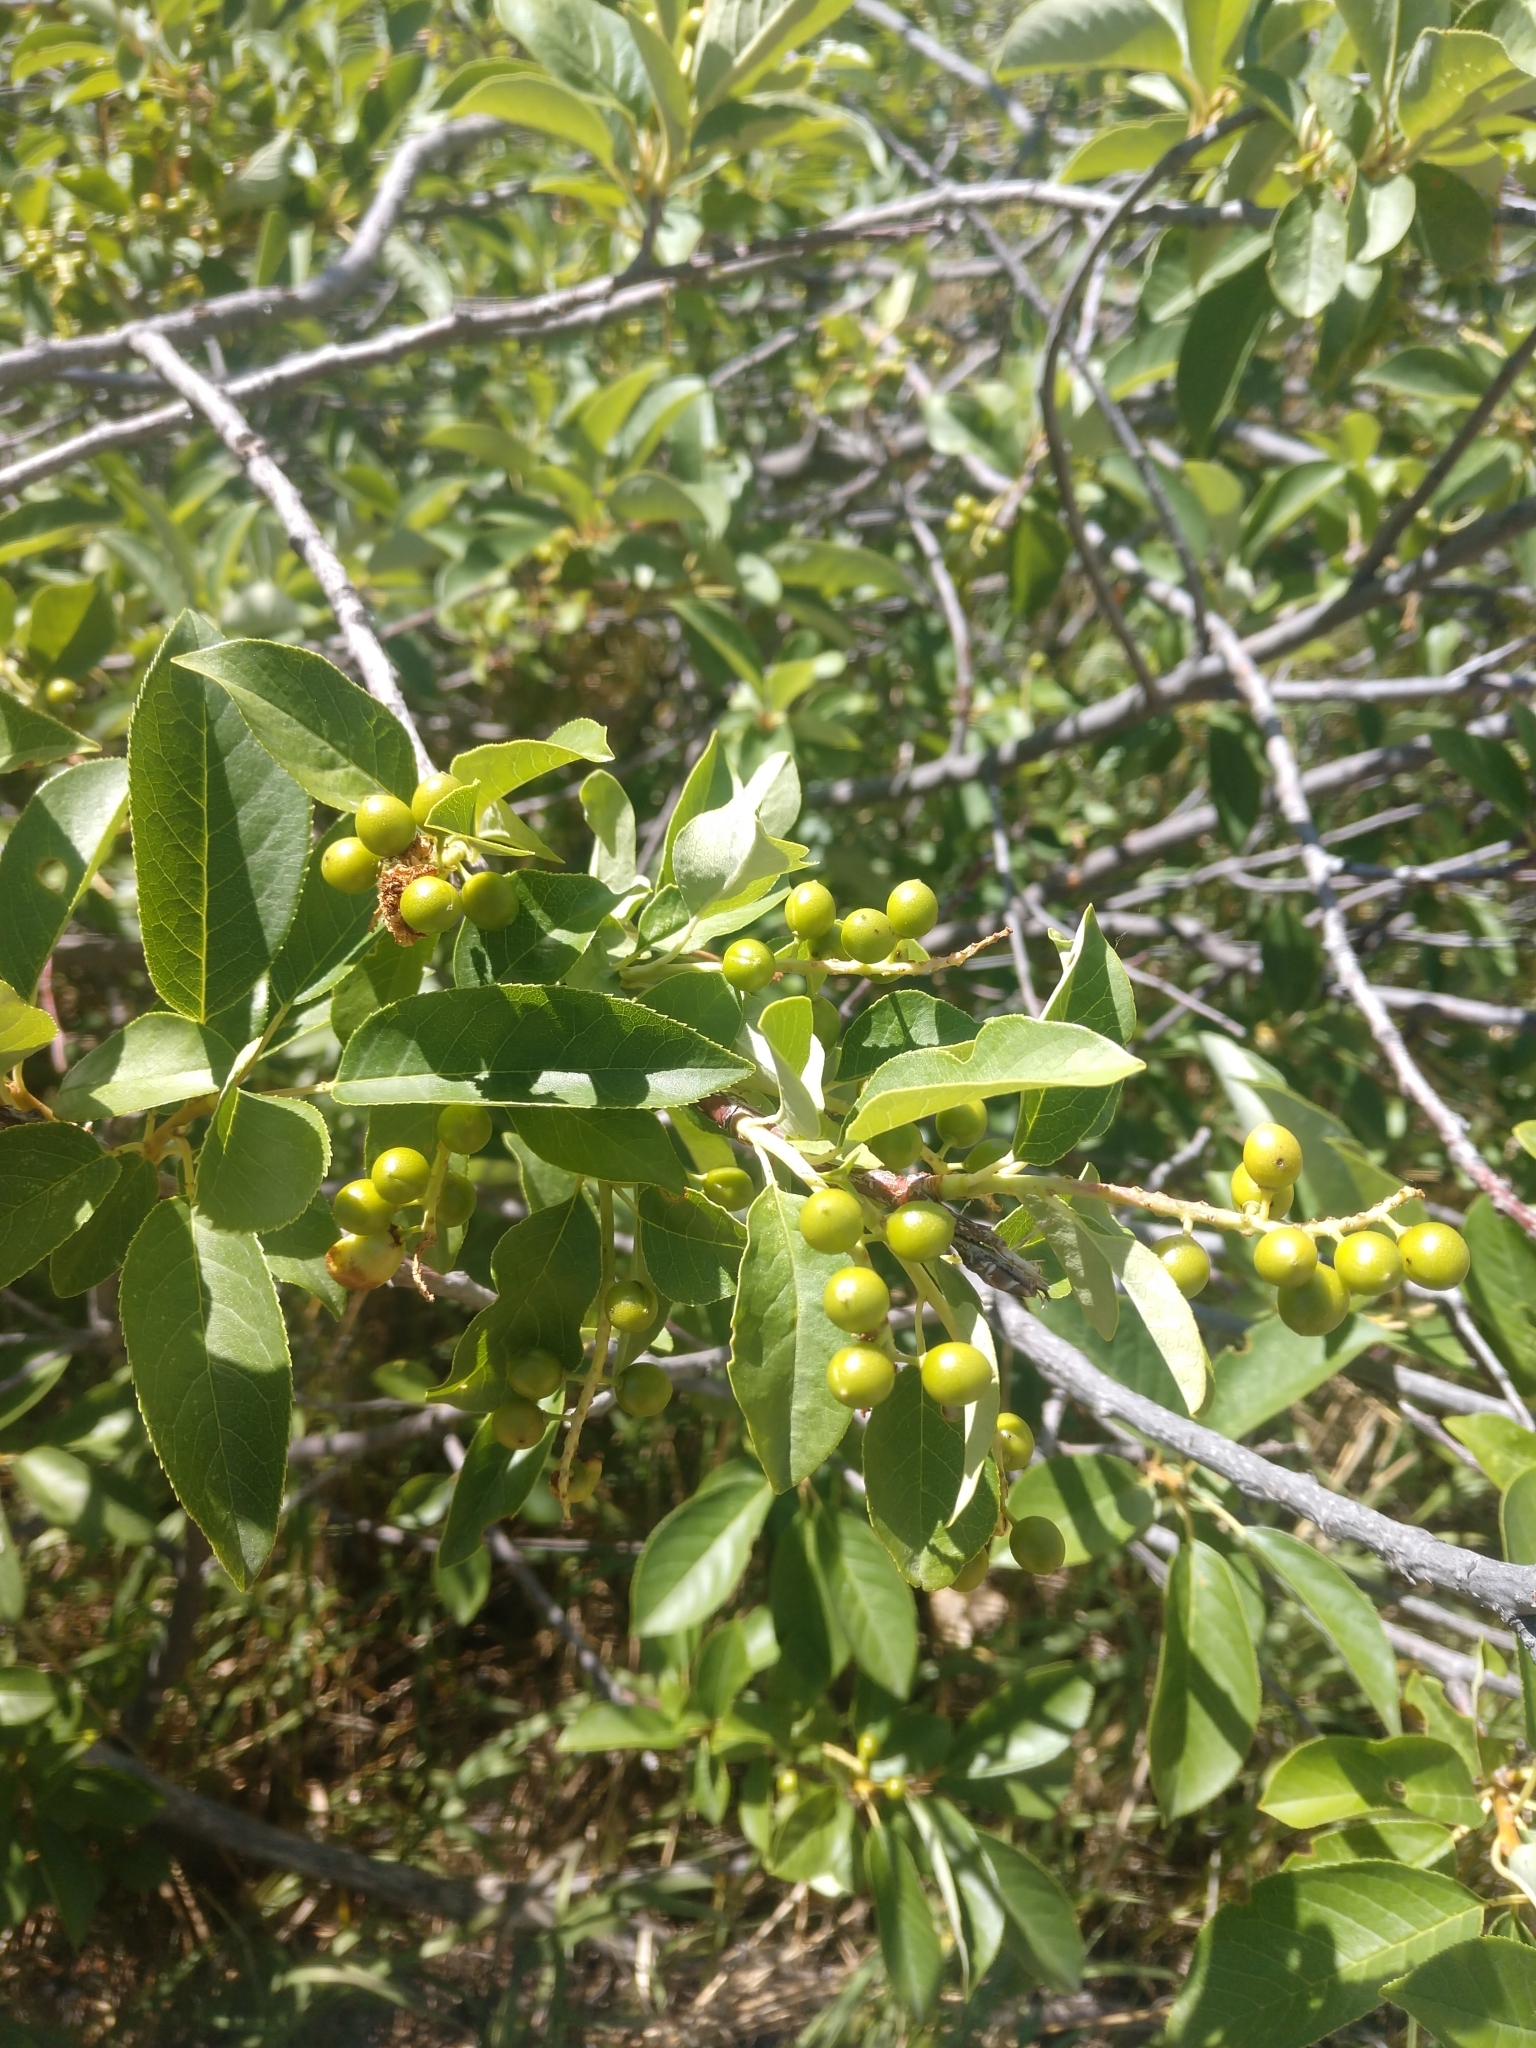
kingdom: Plantae
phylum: Tracheophyta
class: Magnoliopsida
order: Rosales
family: Rosaceae
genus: Prunus
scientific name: Prunus virginiana
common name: Chokecherry
